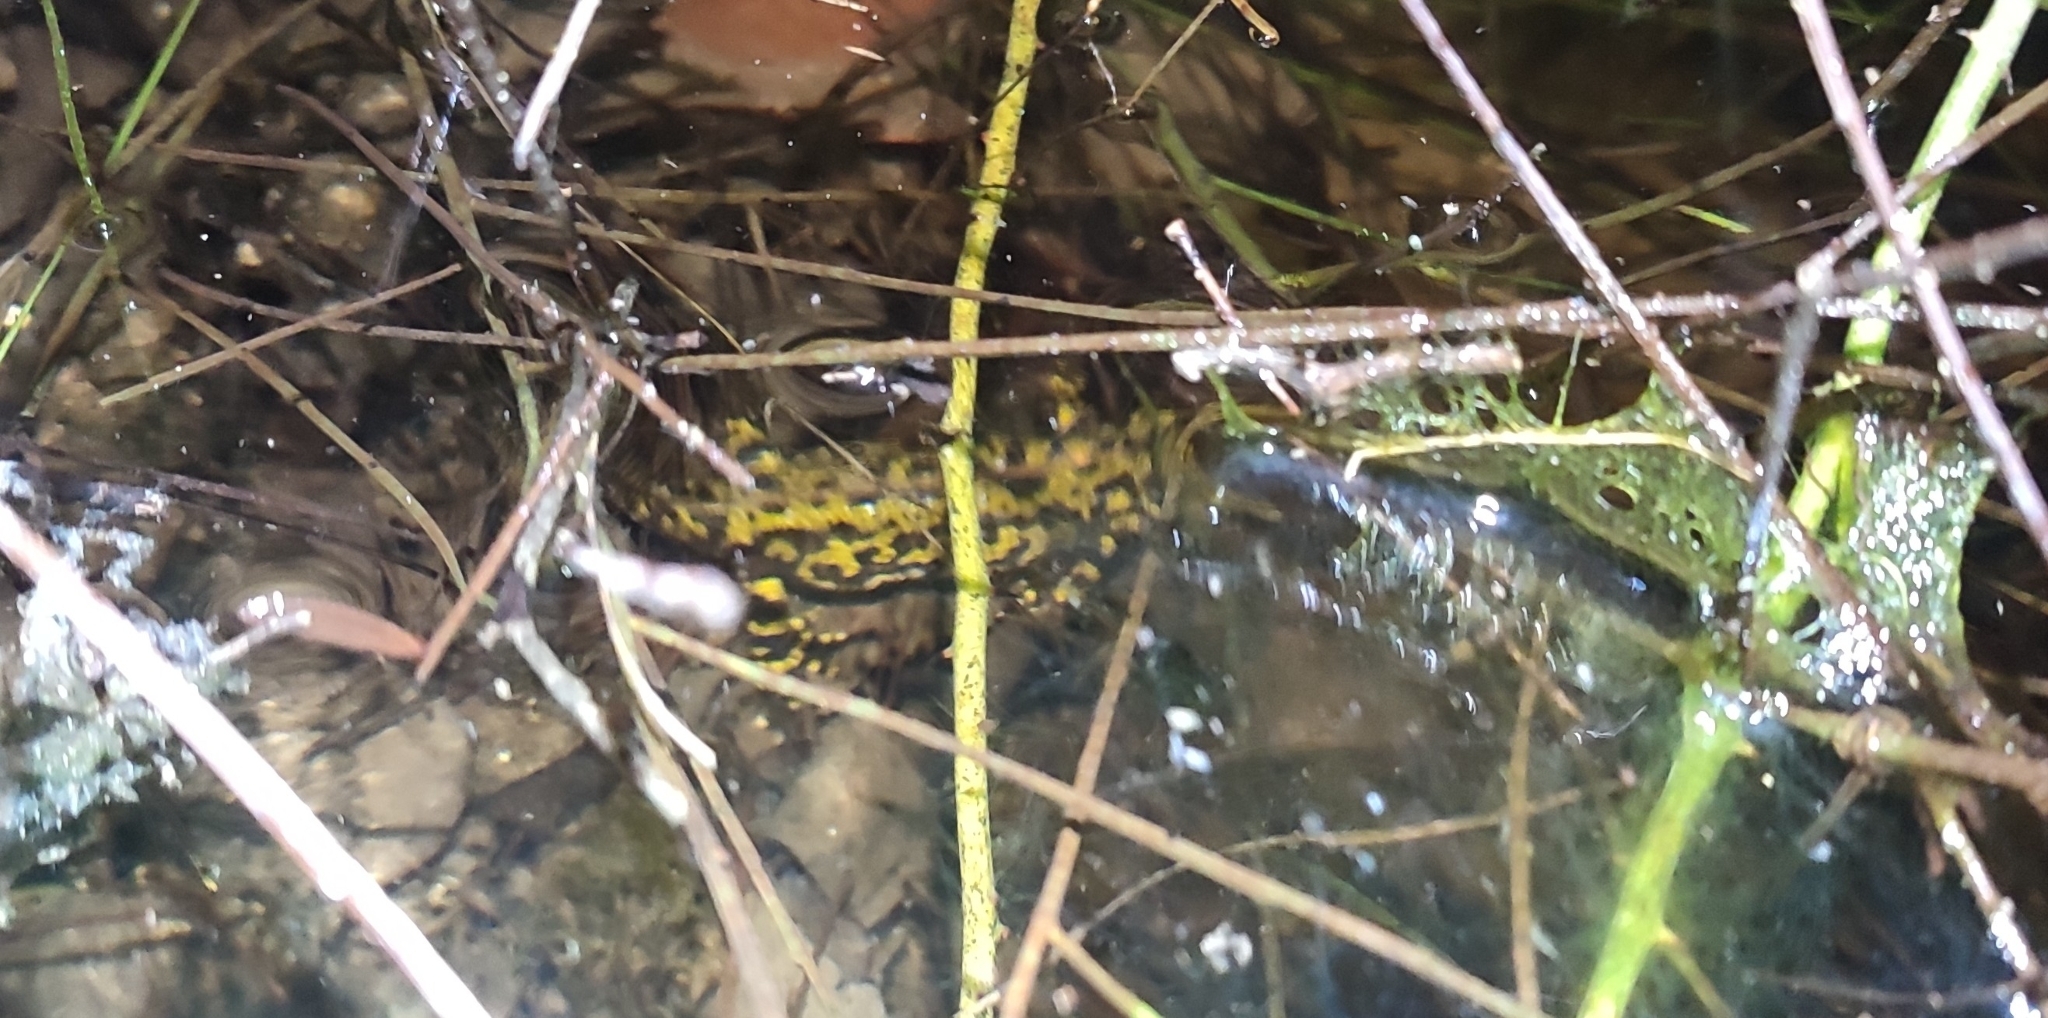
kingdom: Animalia
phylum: Chordata
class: Amphibia
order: Caudata
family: Salamandridae
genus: Triturus
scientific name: Triturus marmoratus
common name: Marbled newt
